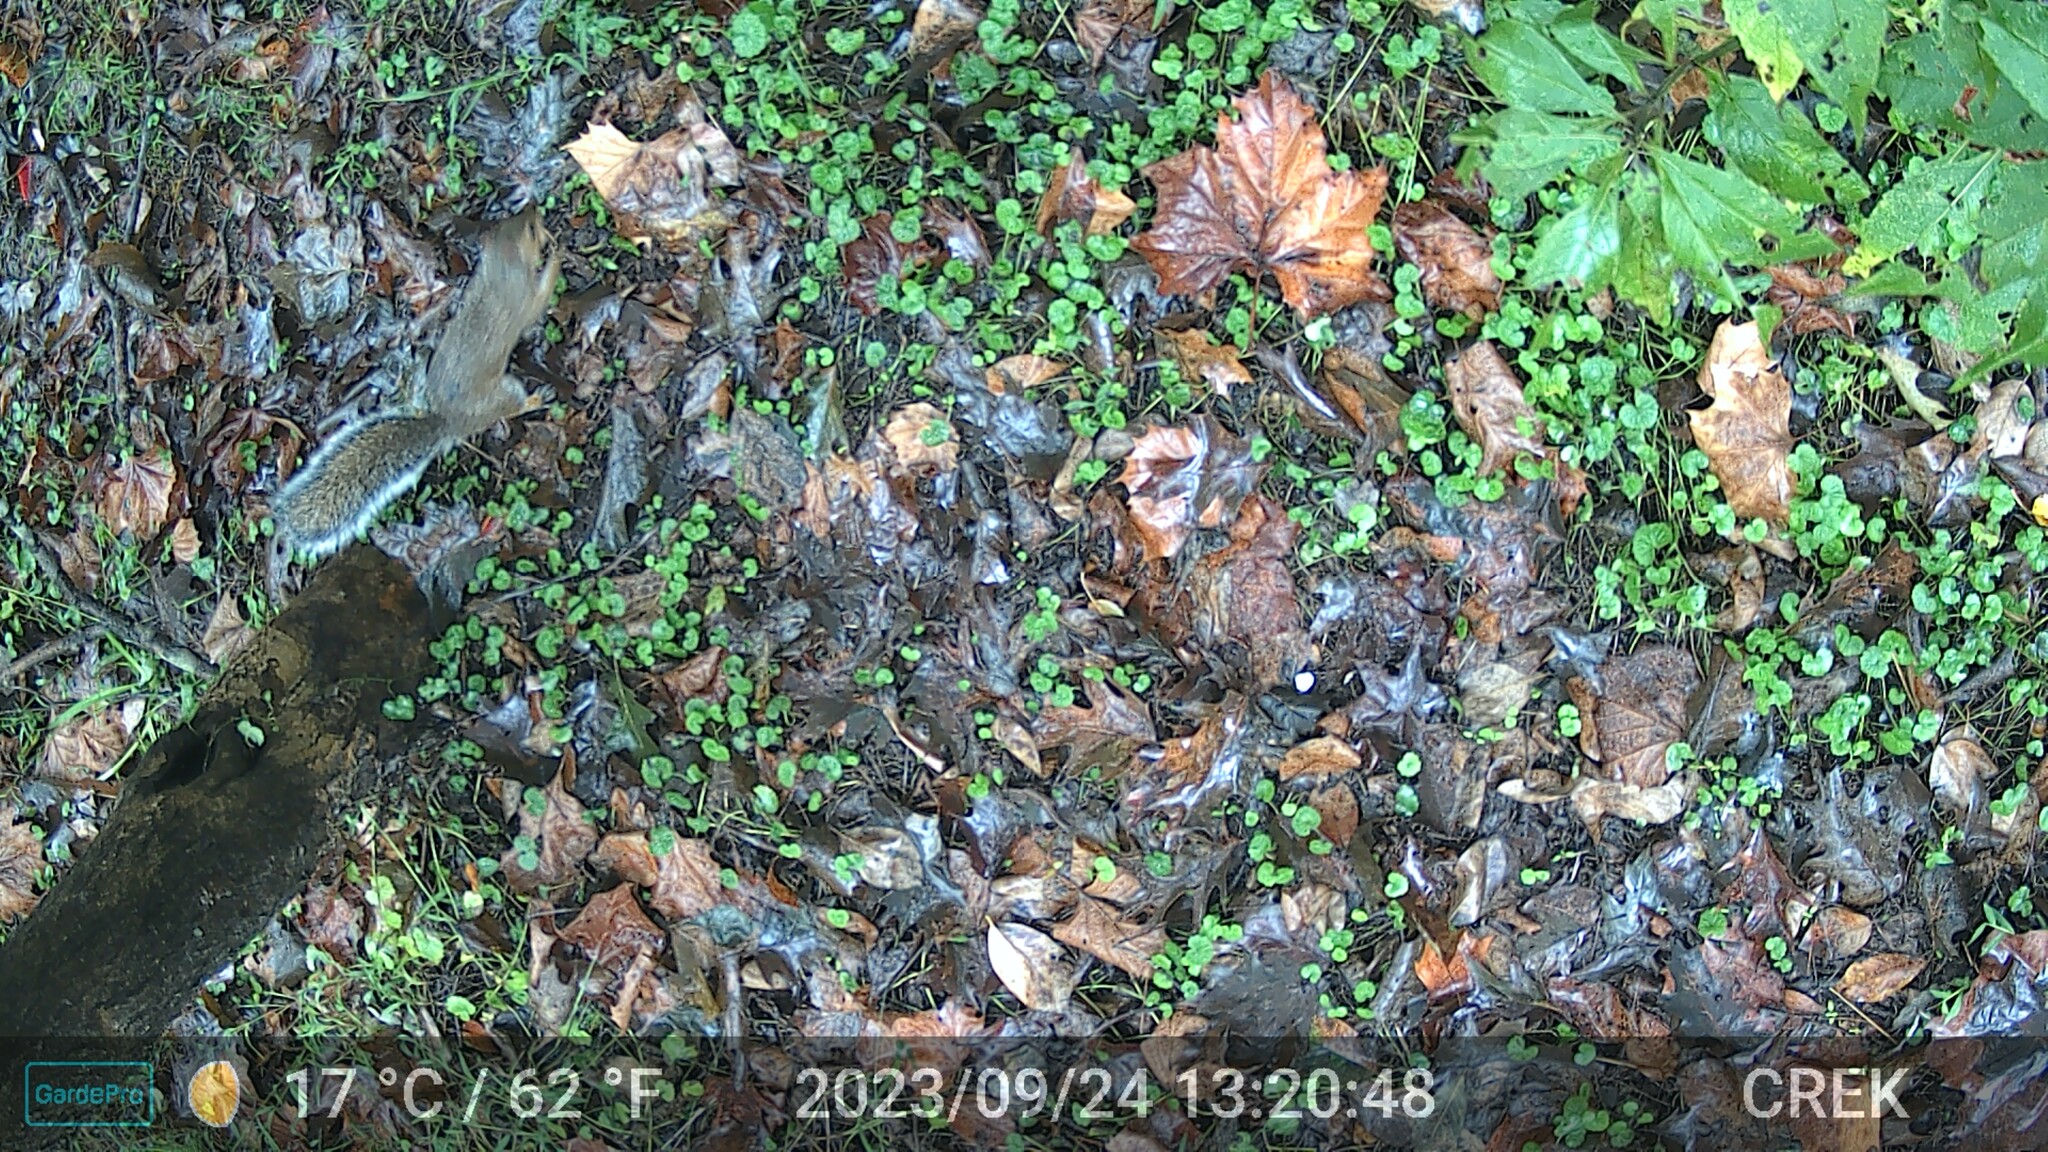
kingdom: Animalia
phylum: Chordata
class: Mammalia
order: Rodentia
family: Sciuridae
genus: Sciurus
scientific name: Sciurus carolinensis
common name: Eastern gray squirrel
